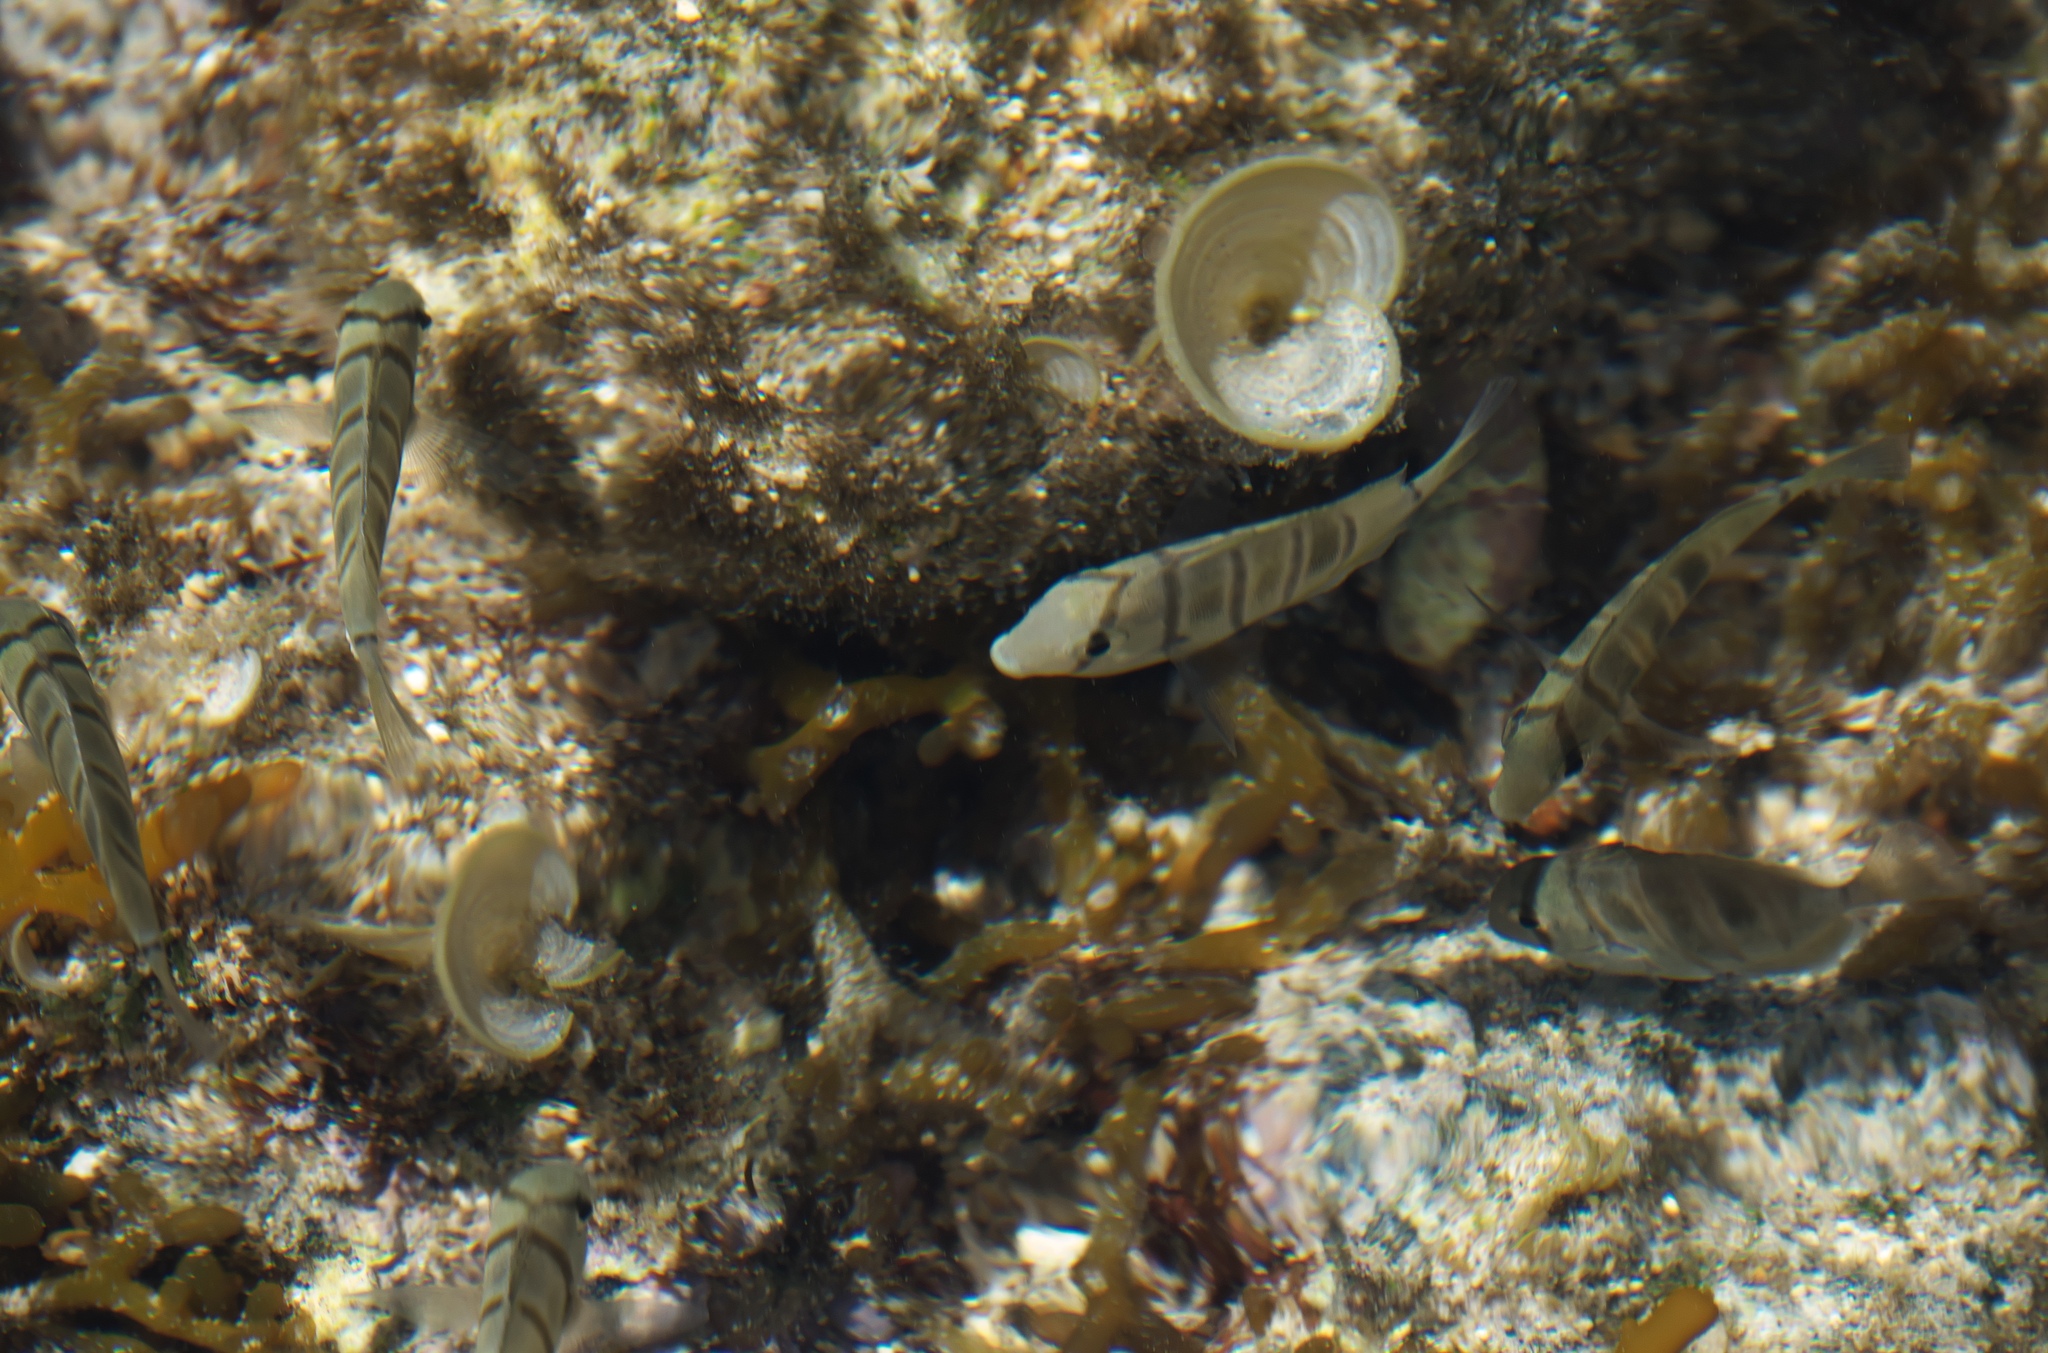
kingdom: Animalia
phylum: Chordata
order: Perciformes
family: Acanthuridae
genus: Acanthurus
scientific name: Acanthurus triostegus
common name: Convict surgeonfish
